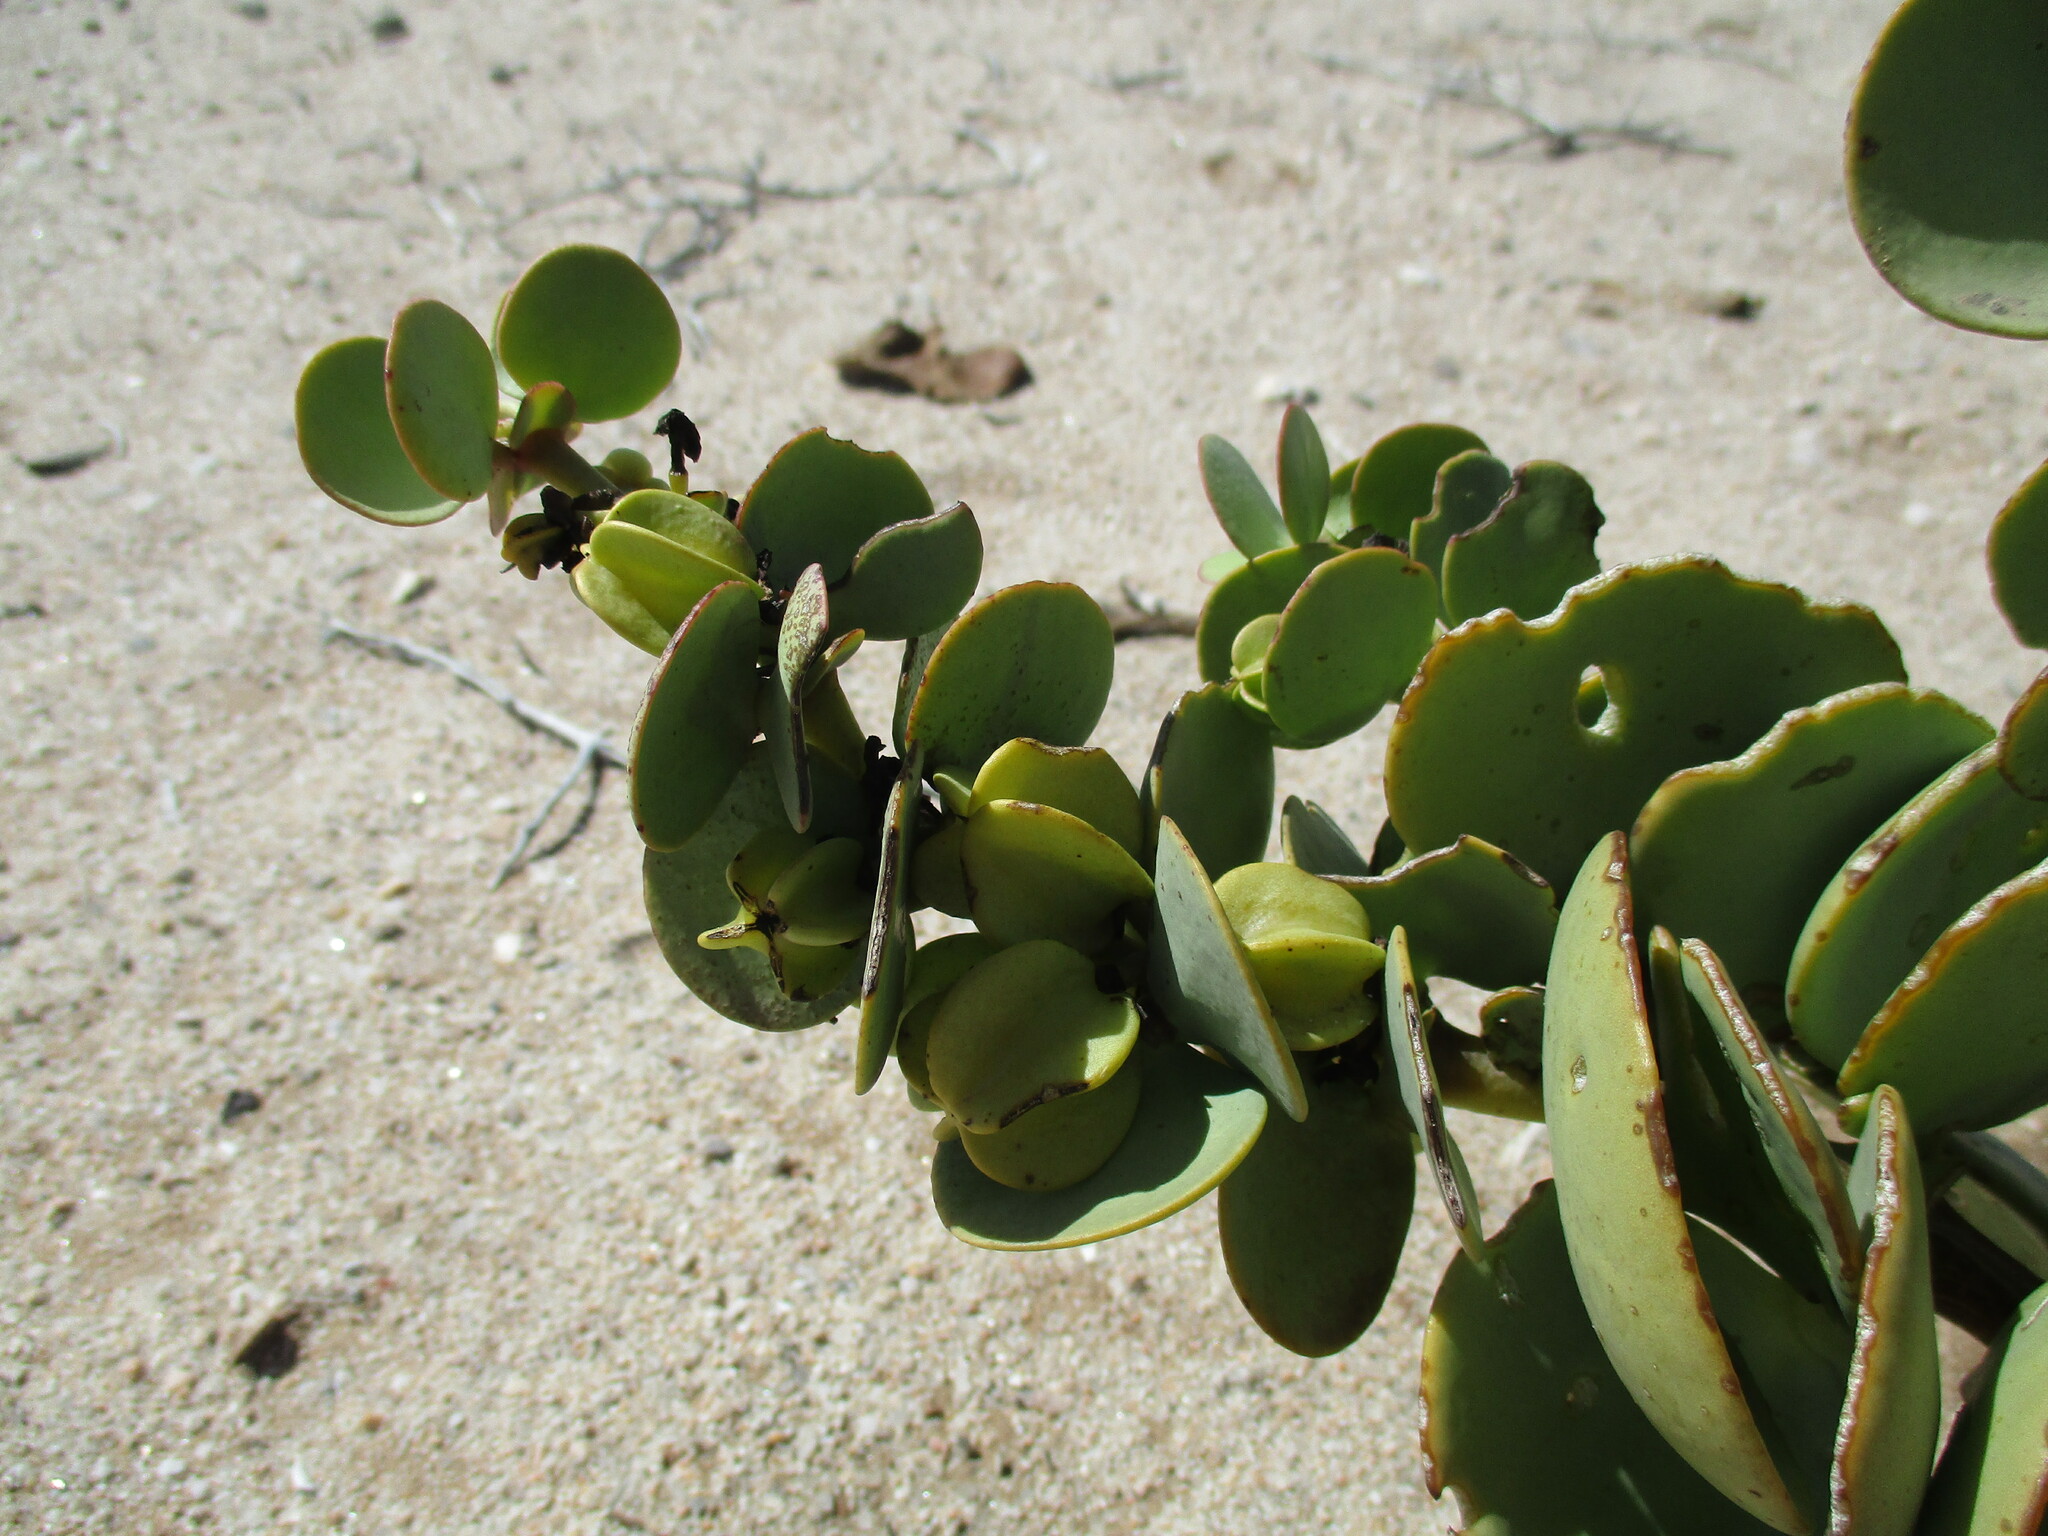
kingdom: Plantae
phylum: Tracheophyta
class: Magnoliopsida
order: Zygophyllales
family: Zygophyllaceae
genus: Tetraena
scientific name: Tetraena stapfii
